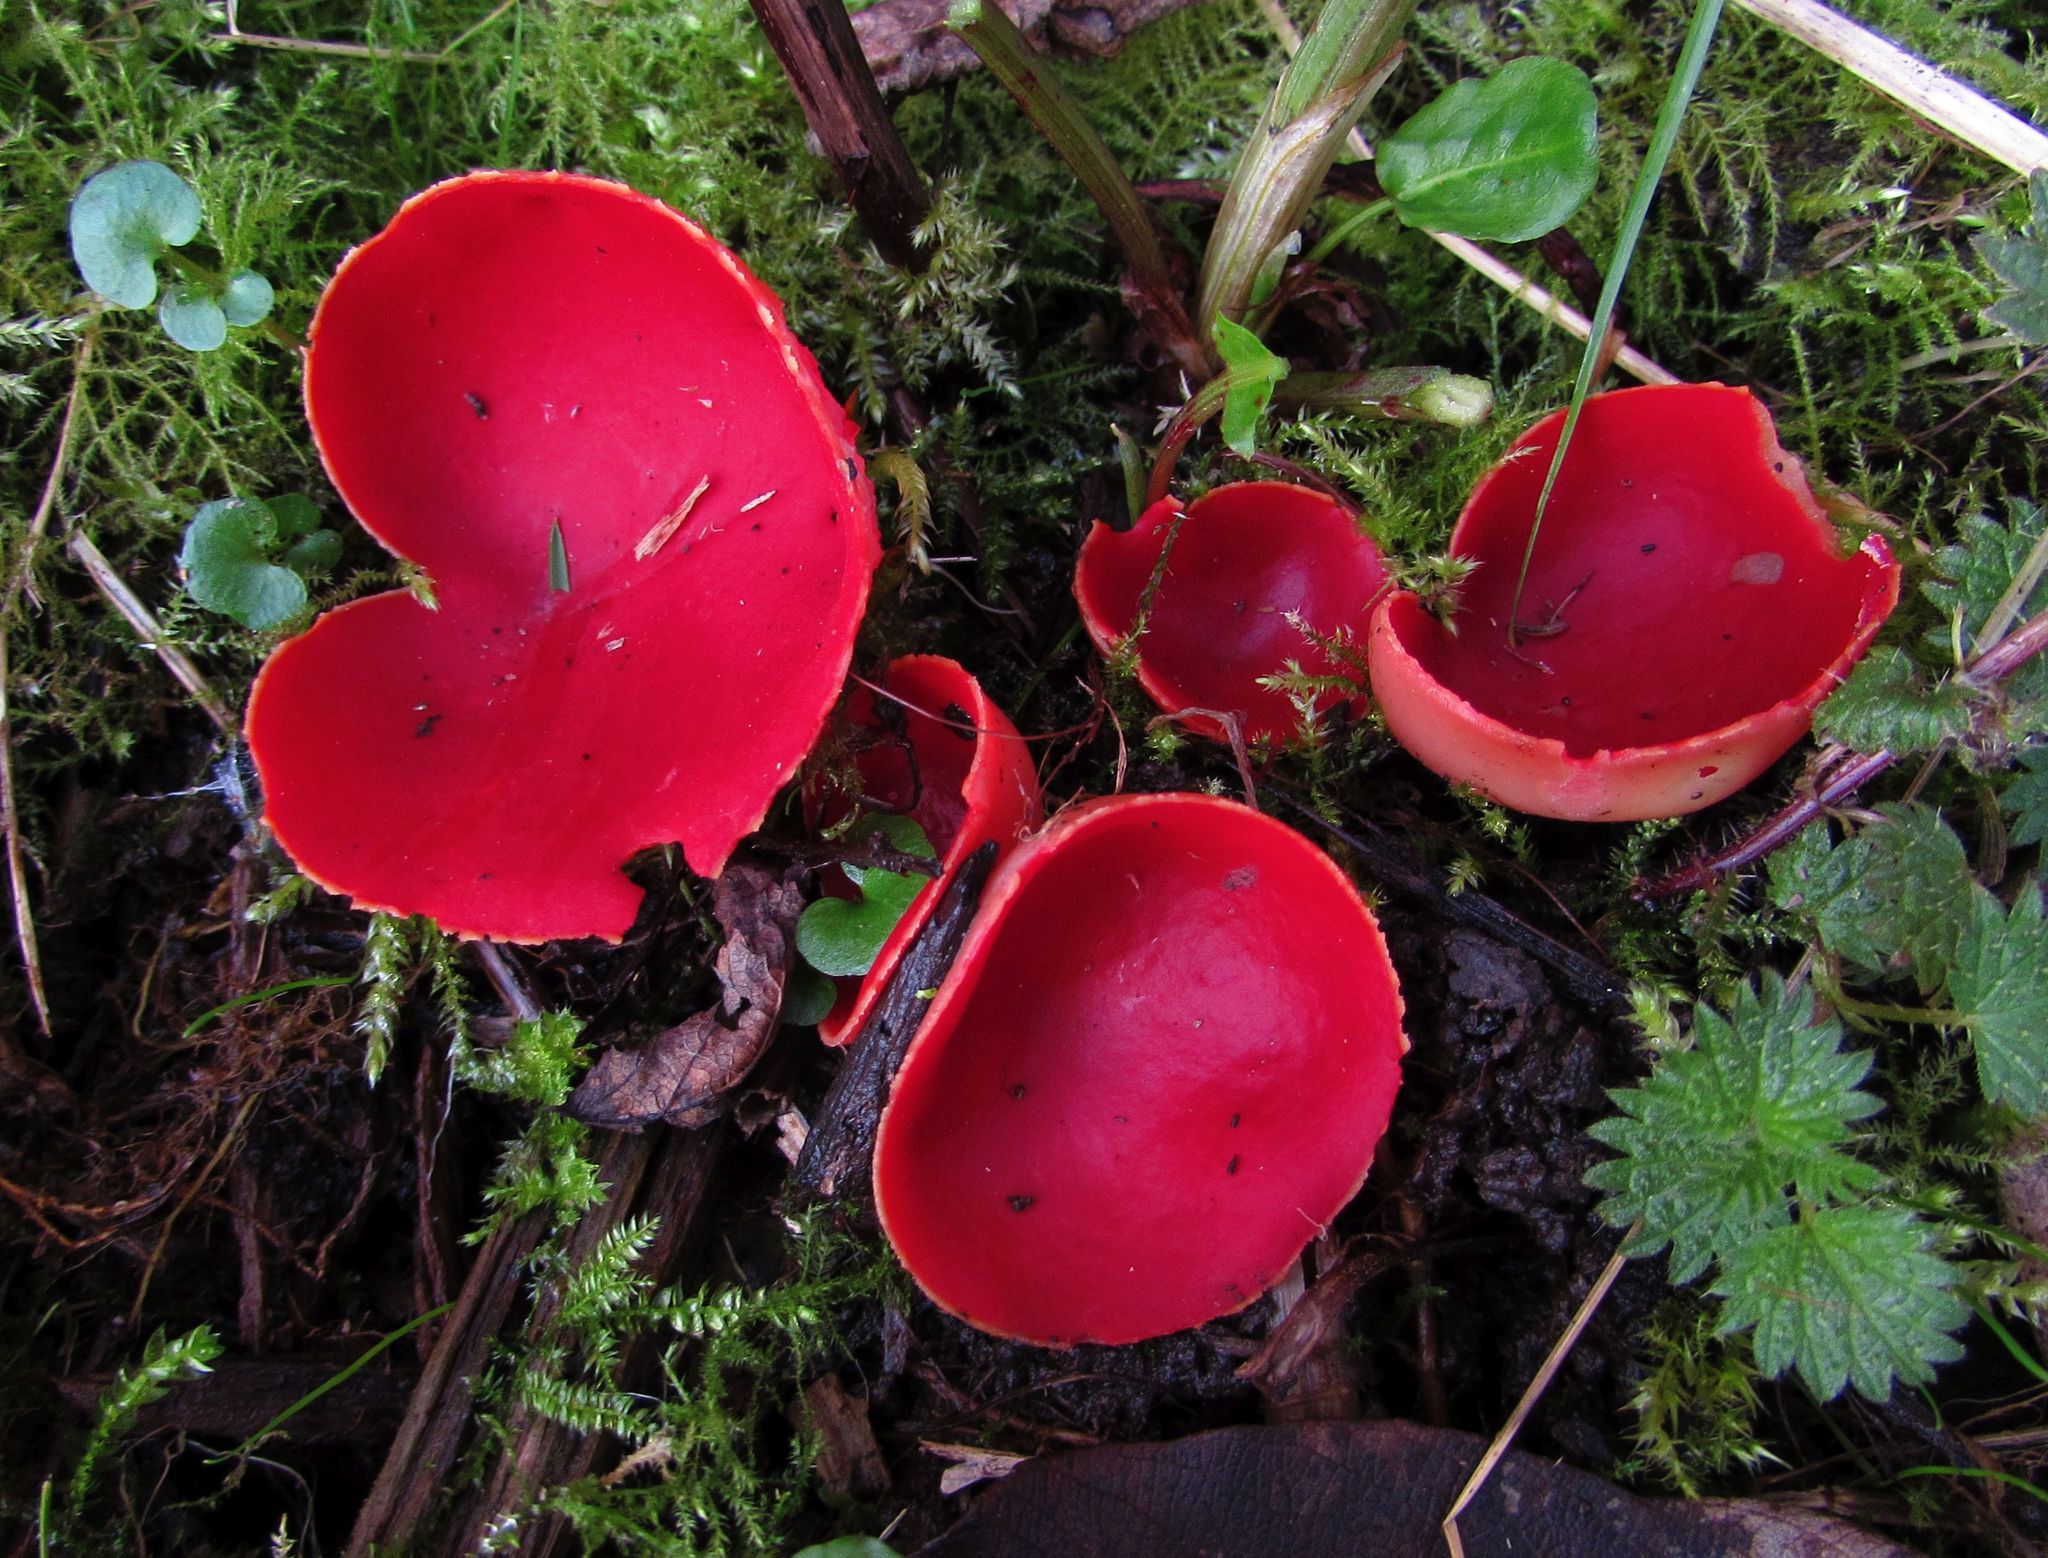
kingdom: Fungi
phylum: Ascomycota
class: Pezizomycetes
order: Pezizales
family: Sarcoscyphaceae
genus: Sarcoscypha
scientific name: Sarcoscypha
